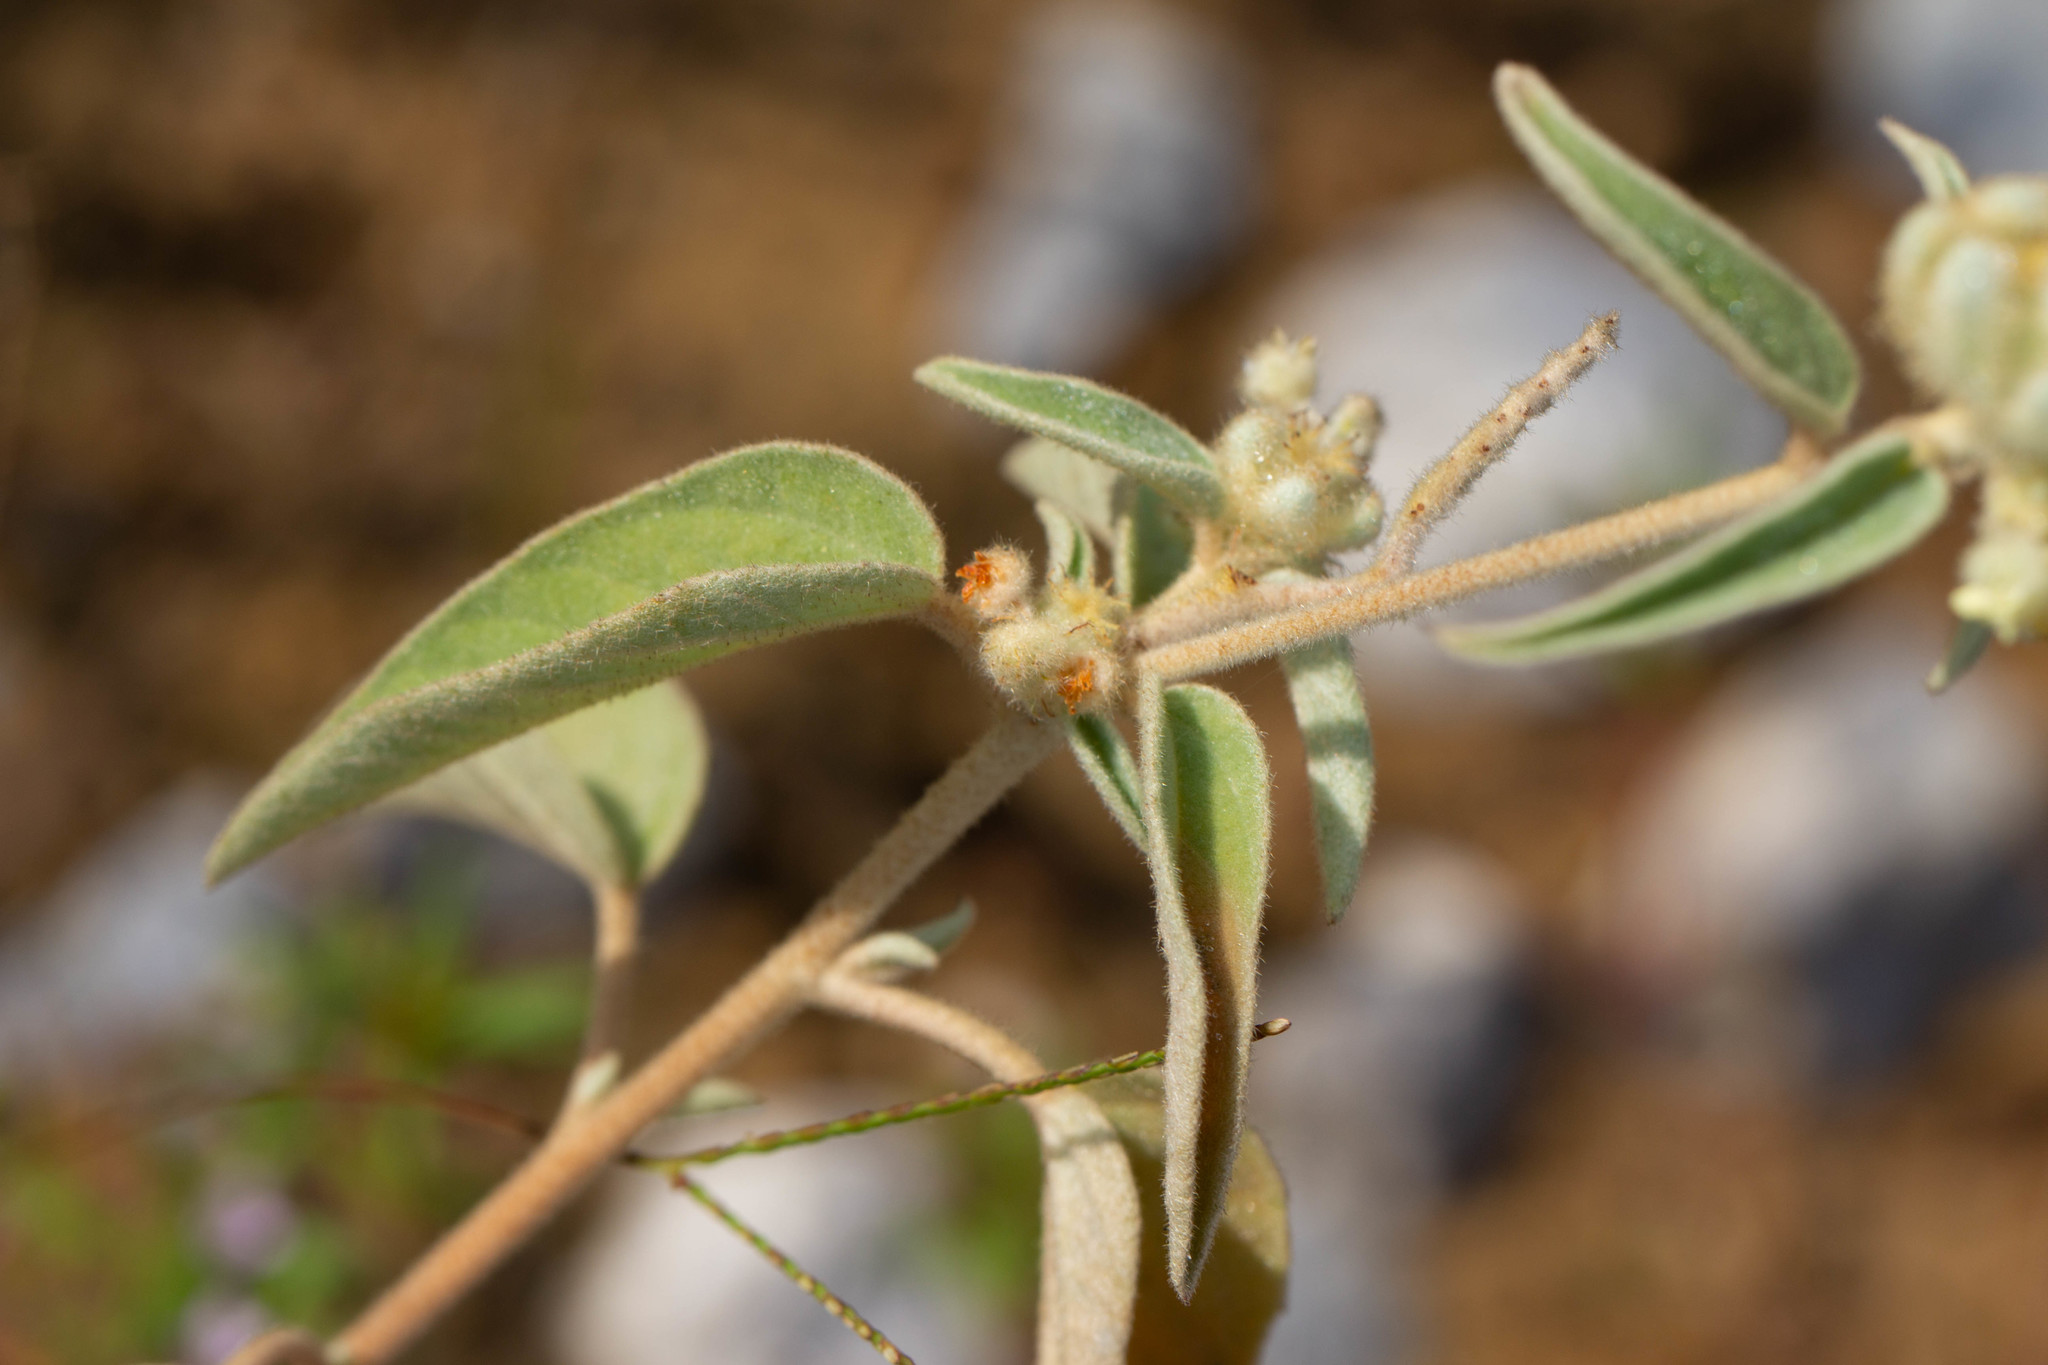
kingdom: Plantae
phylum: Tracheophyta
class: Magnoliopsida
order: Malpighiales
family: Euphorbiaceae
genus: Croton
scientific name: Croton lindheimeri
